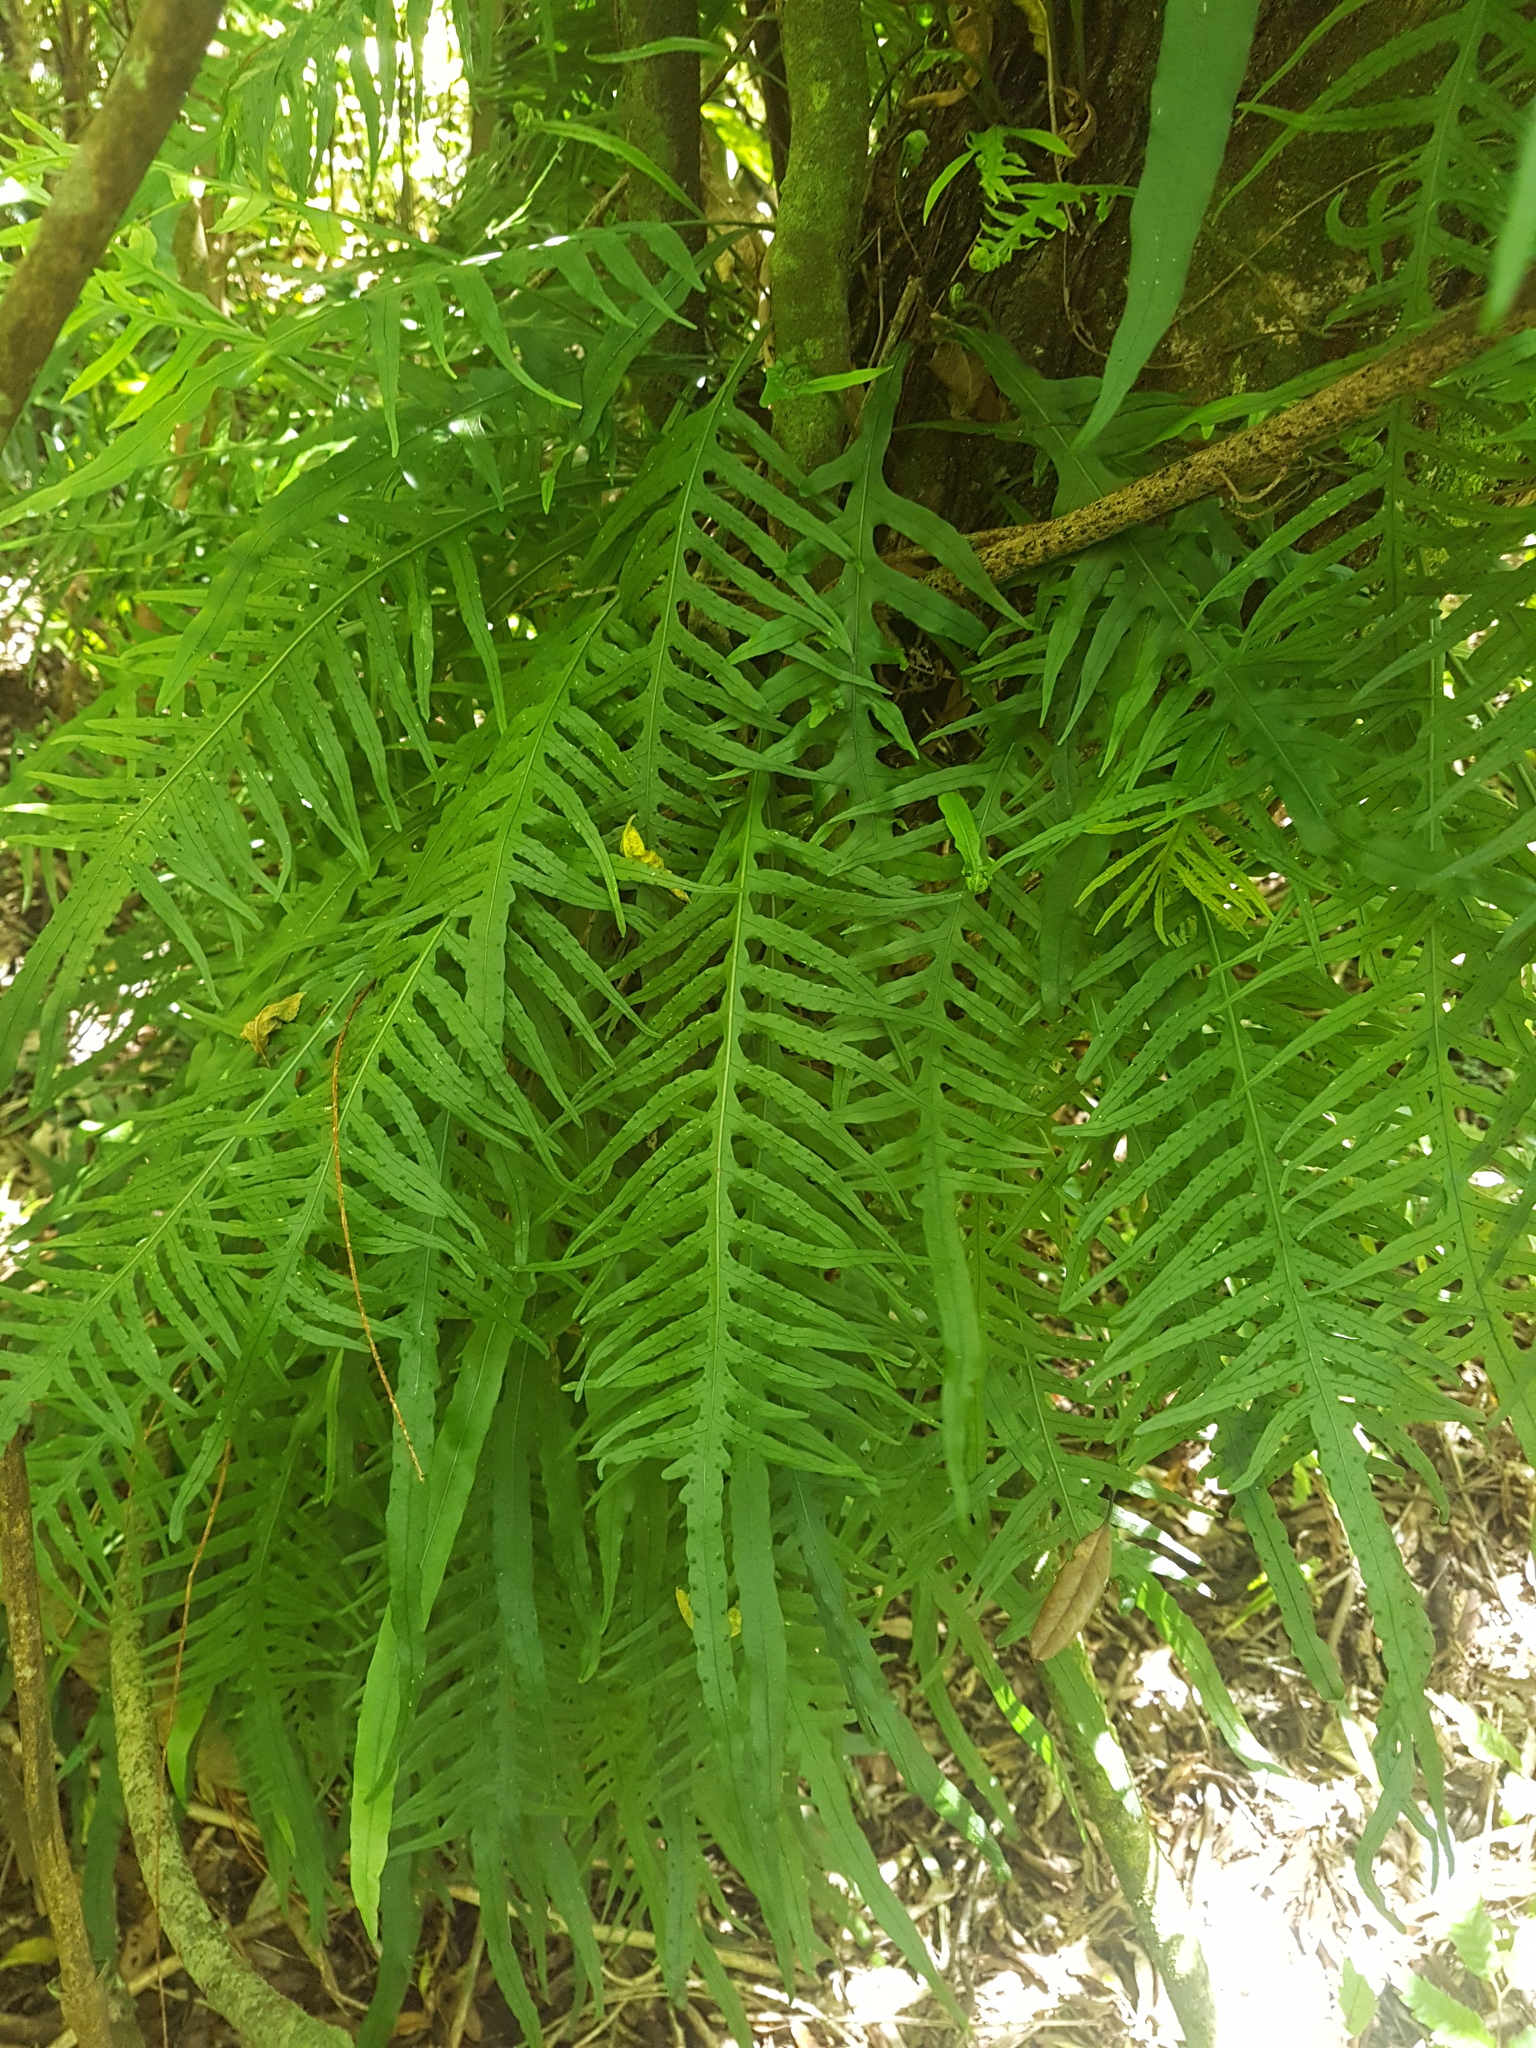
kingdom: Plantae
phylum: Tracheophyta
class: Polypodiopsida
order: Polypodiales
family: Polypodiaceae
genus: Lecanopteris
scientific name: Lecanopteris scandens
